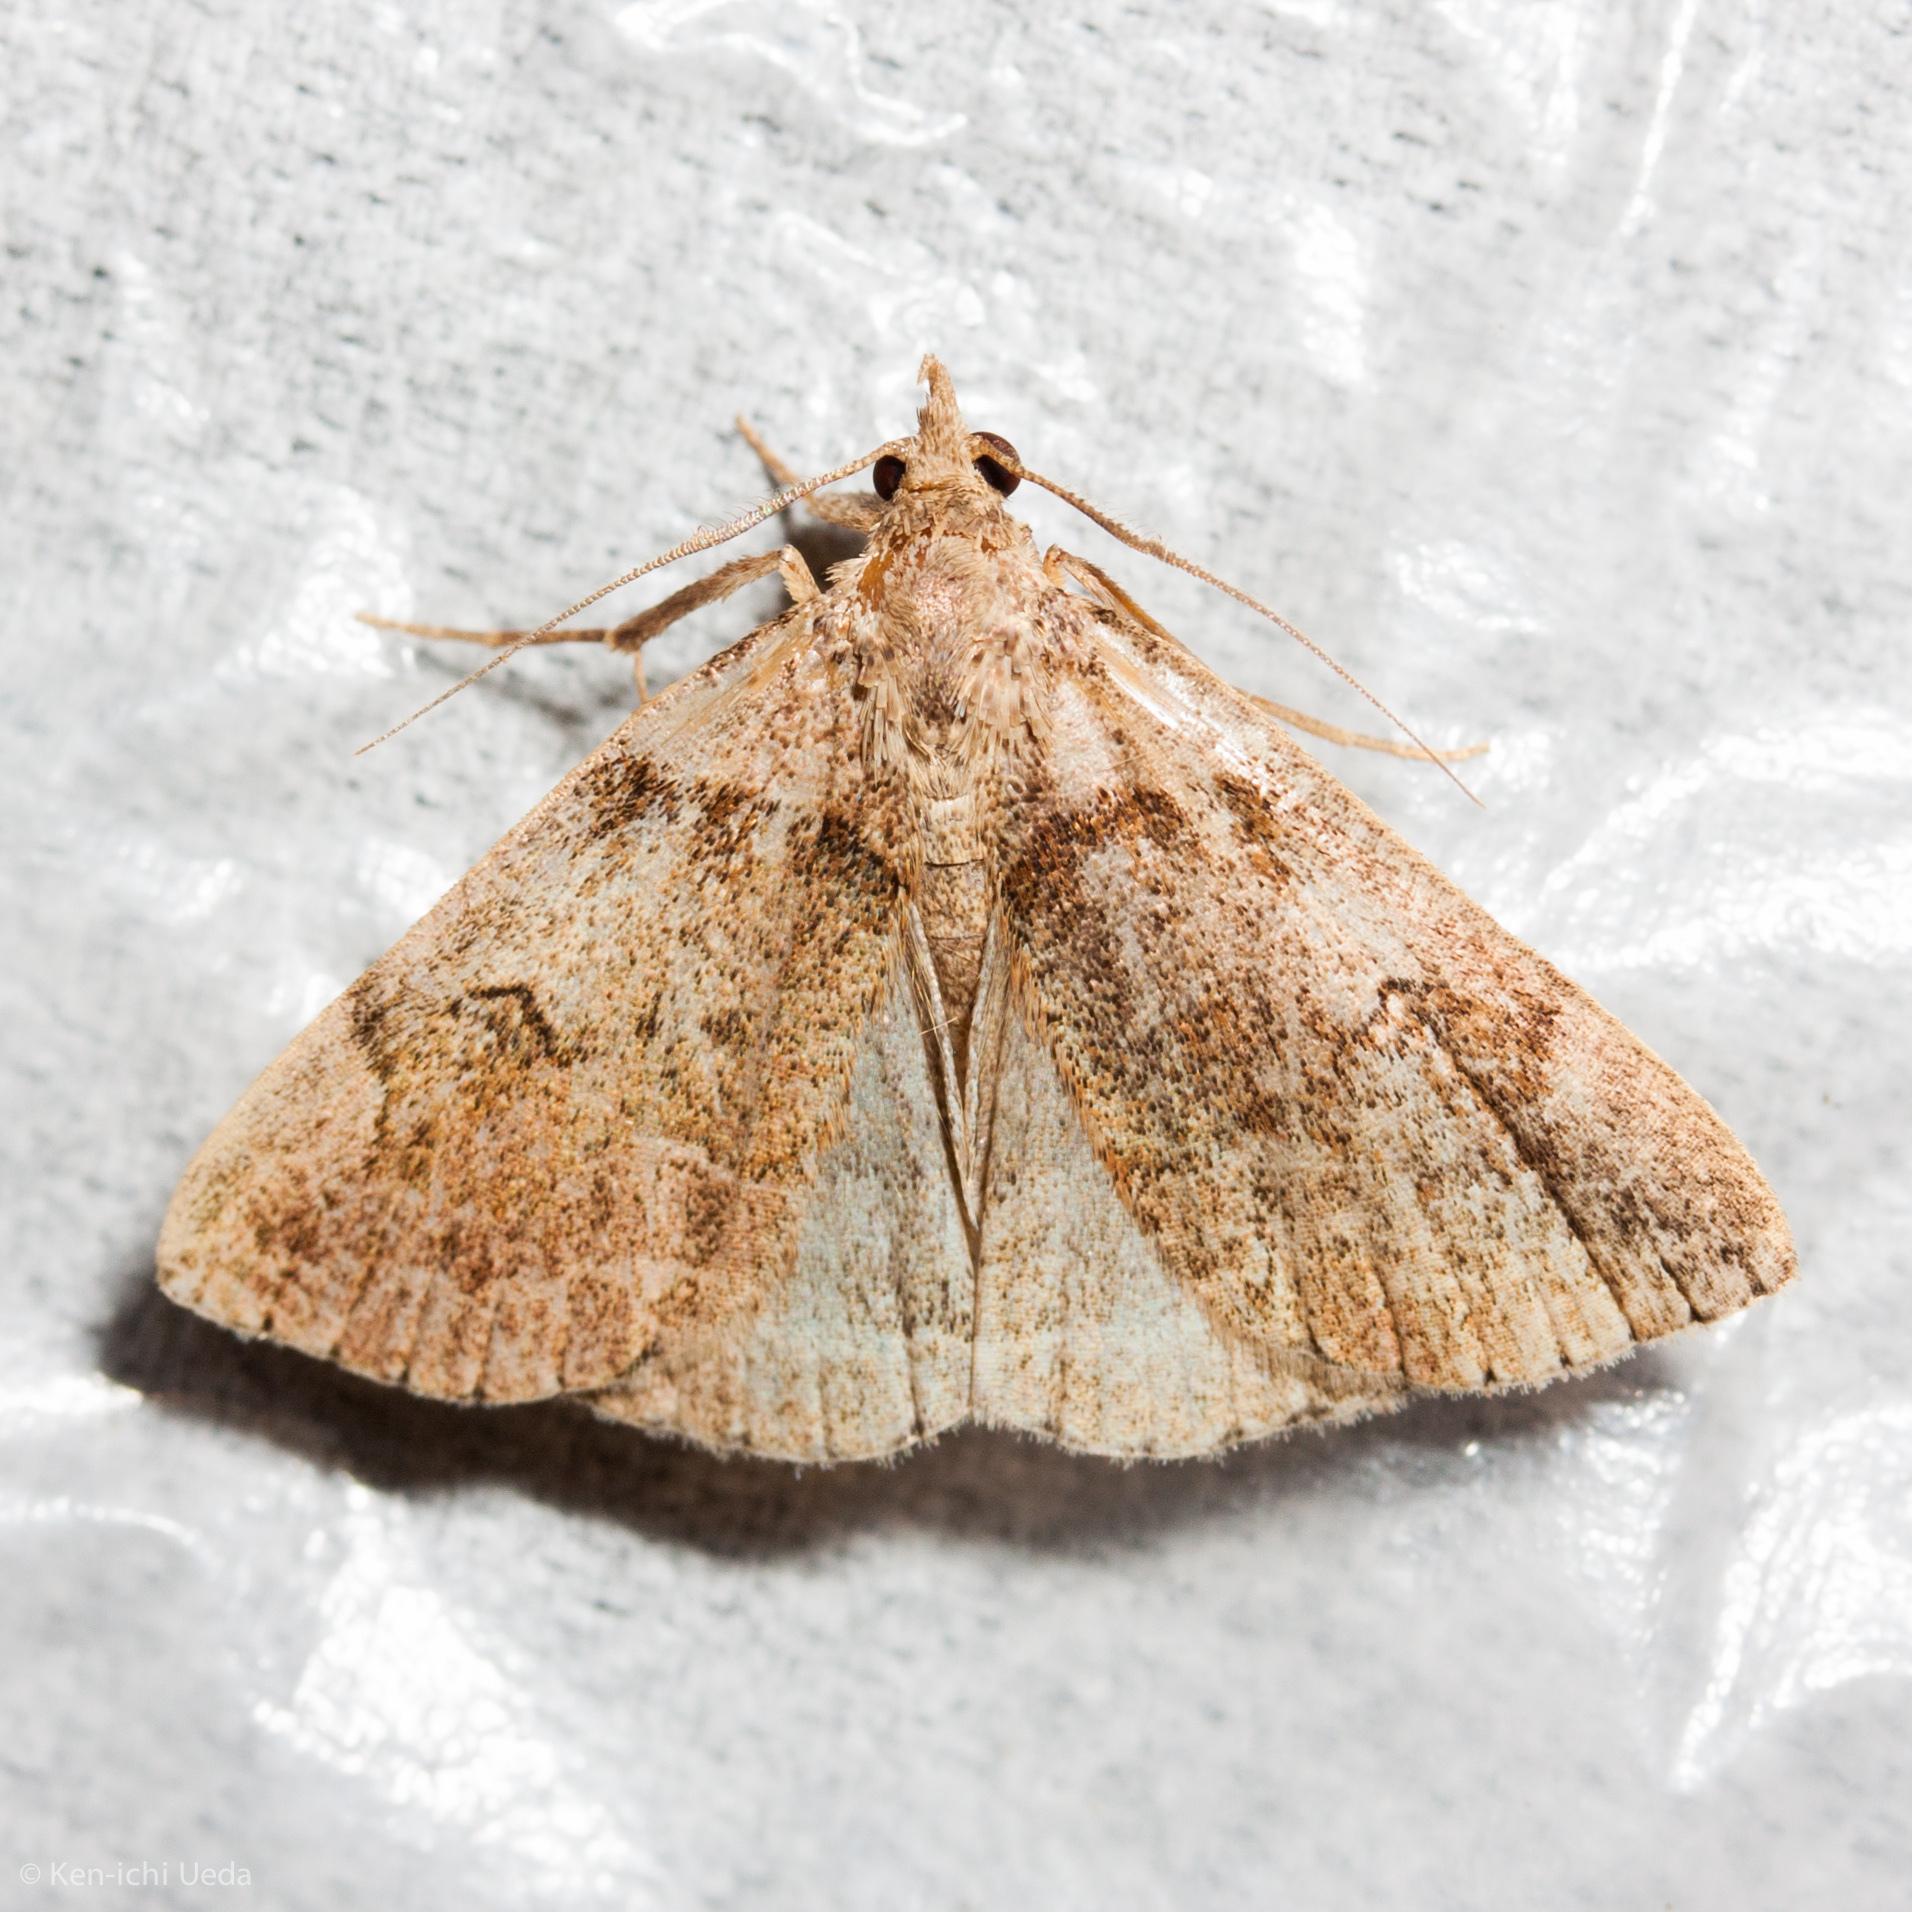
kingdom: Animalia
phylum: Arthropoda
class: Insecta
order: Lepidoptera
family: Erebidae
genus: Zanclognatha
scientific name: Zanclognatha laevigata
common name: Variable fan-foot
